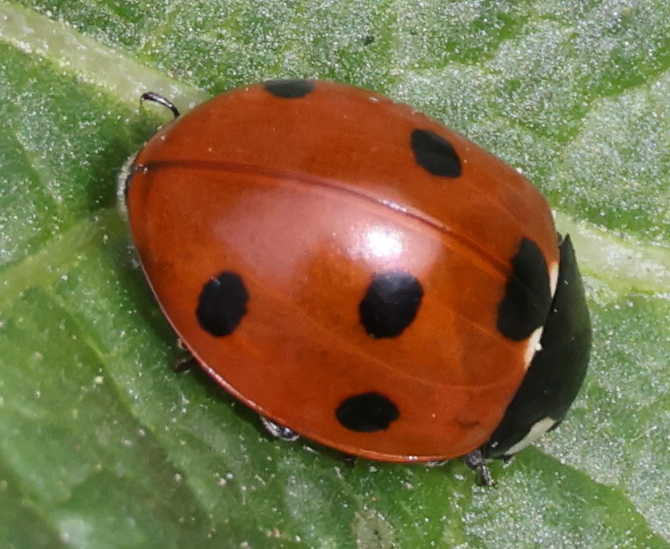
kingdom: Animalia
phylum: Arthropoda
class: Insecta
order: Coleoptera
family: Coccinellidae
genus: Coccinella
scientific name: Coccinella septempunctata
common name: Sevenspotted lady beetle
